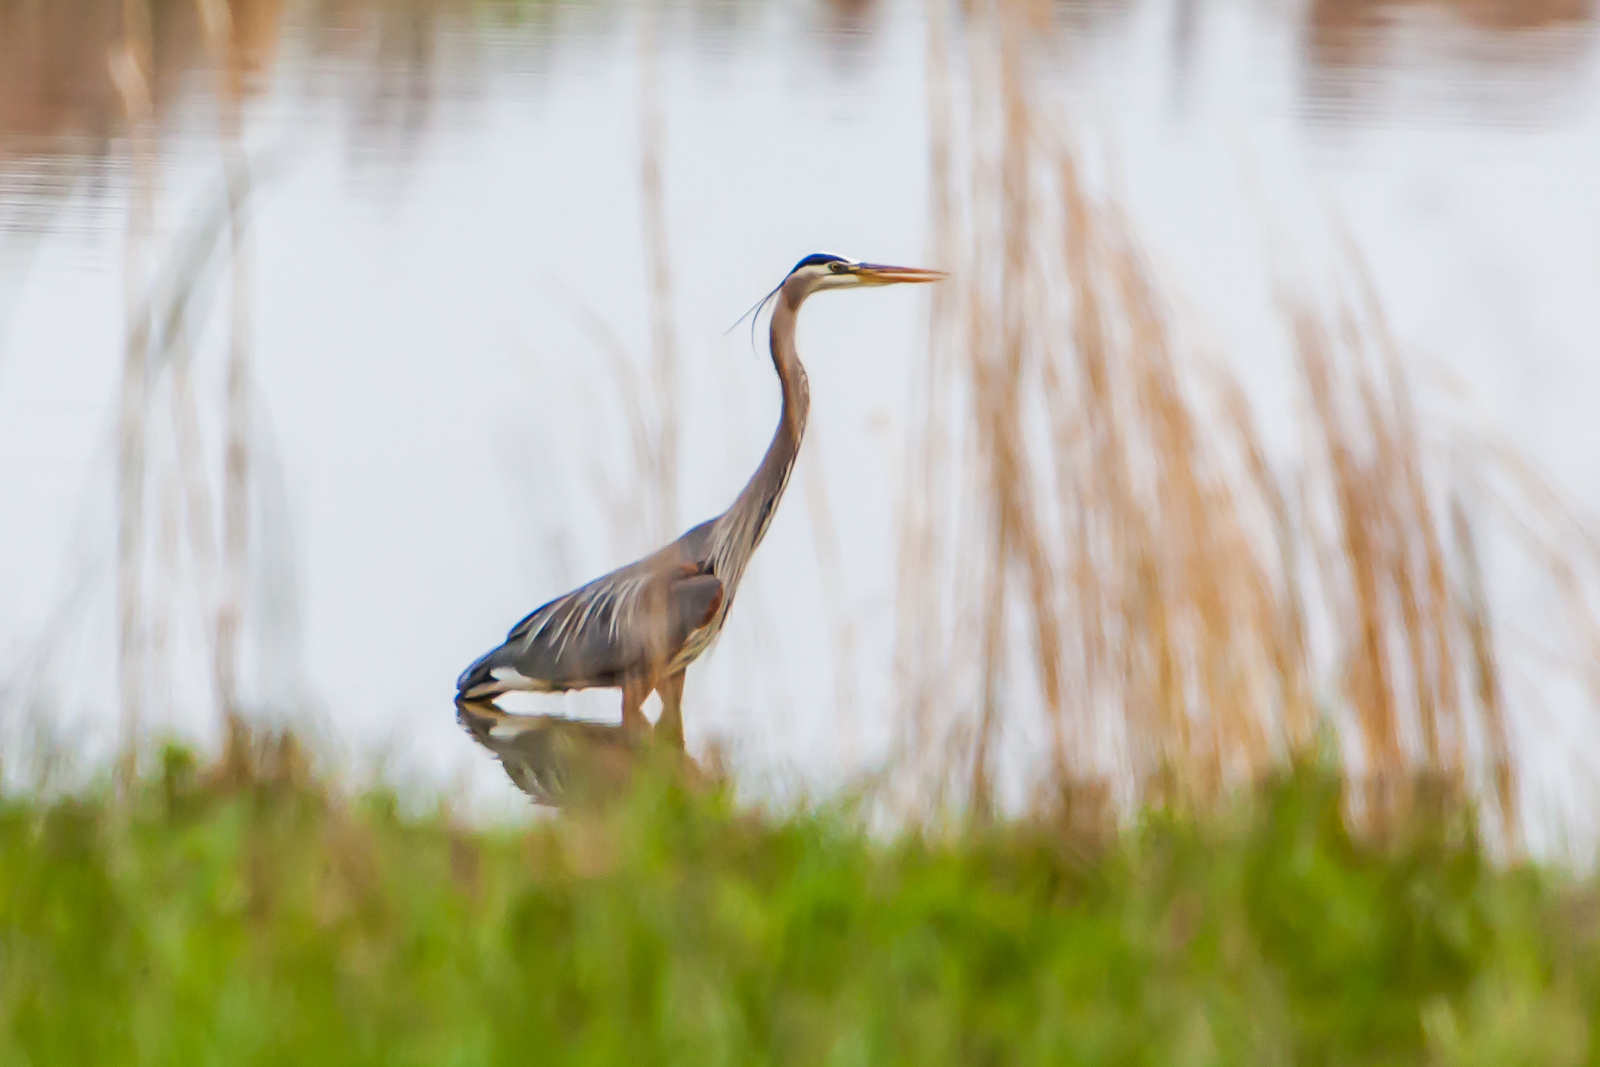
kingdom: Animalia
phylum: Chordata
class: Aves
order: Pelecaniformes
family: Ardeidae
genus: Ardea
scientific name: Ardea herodias
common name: Great blue heron
